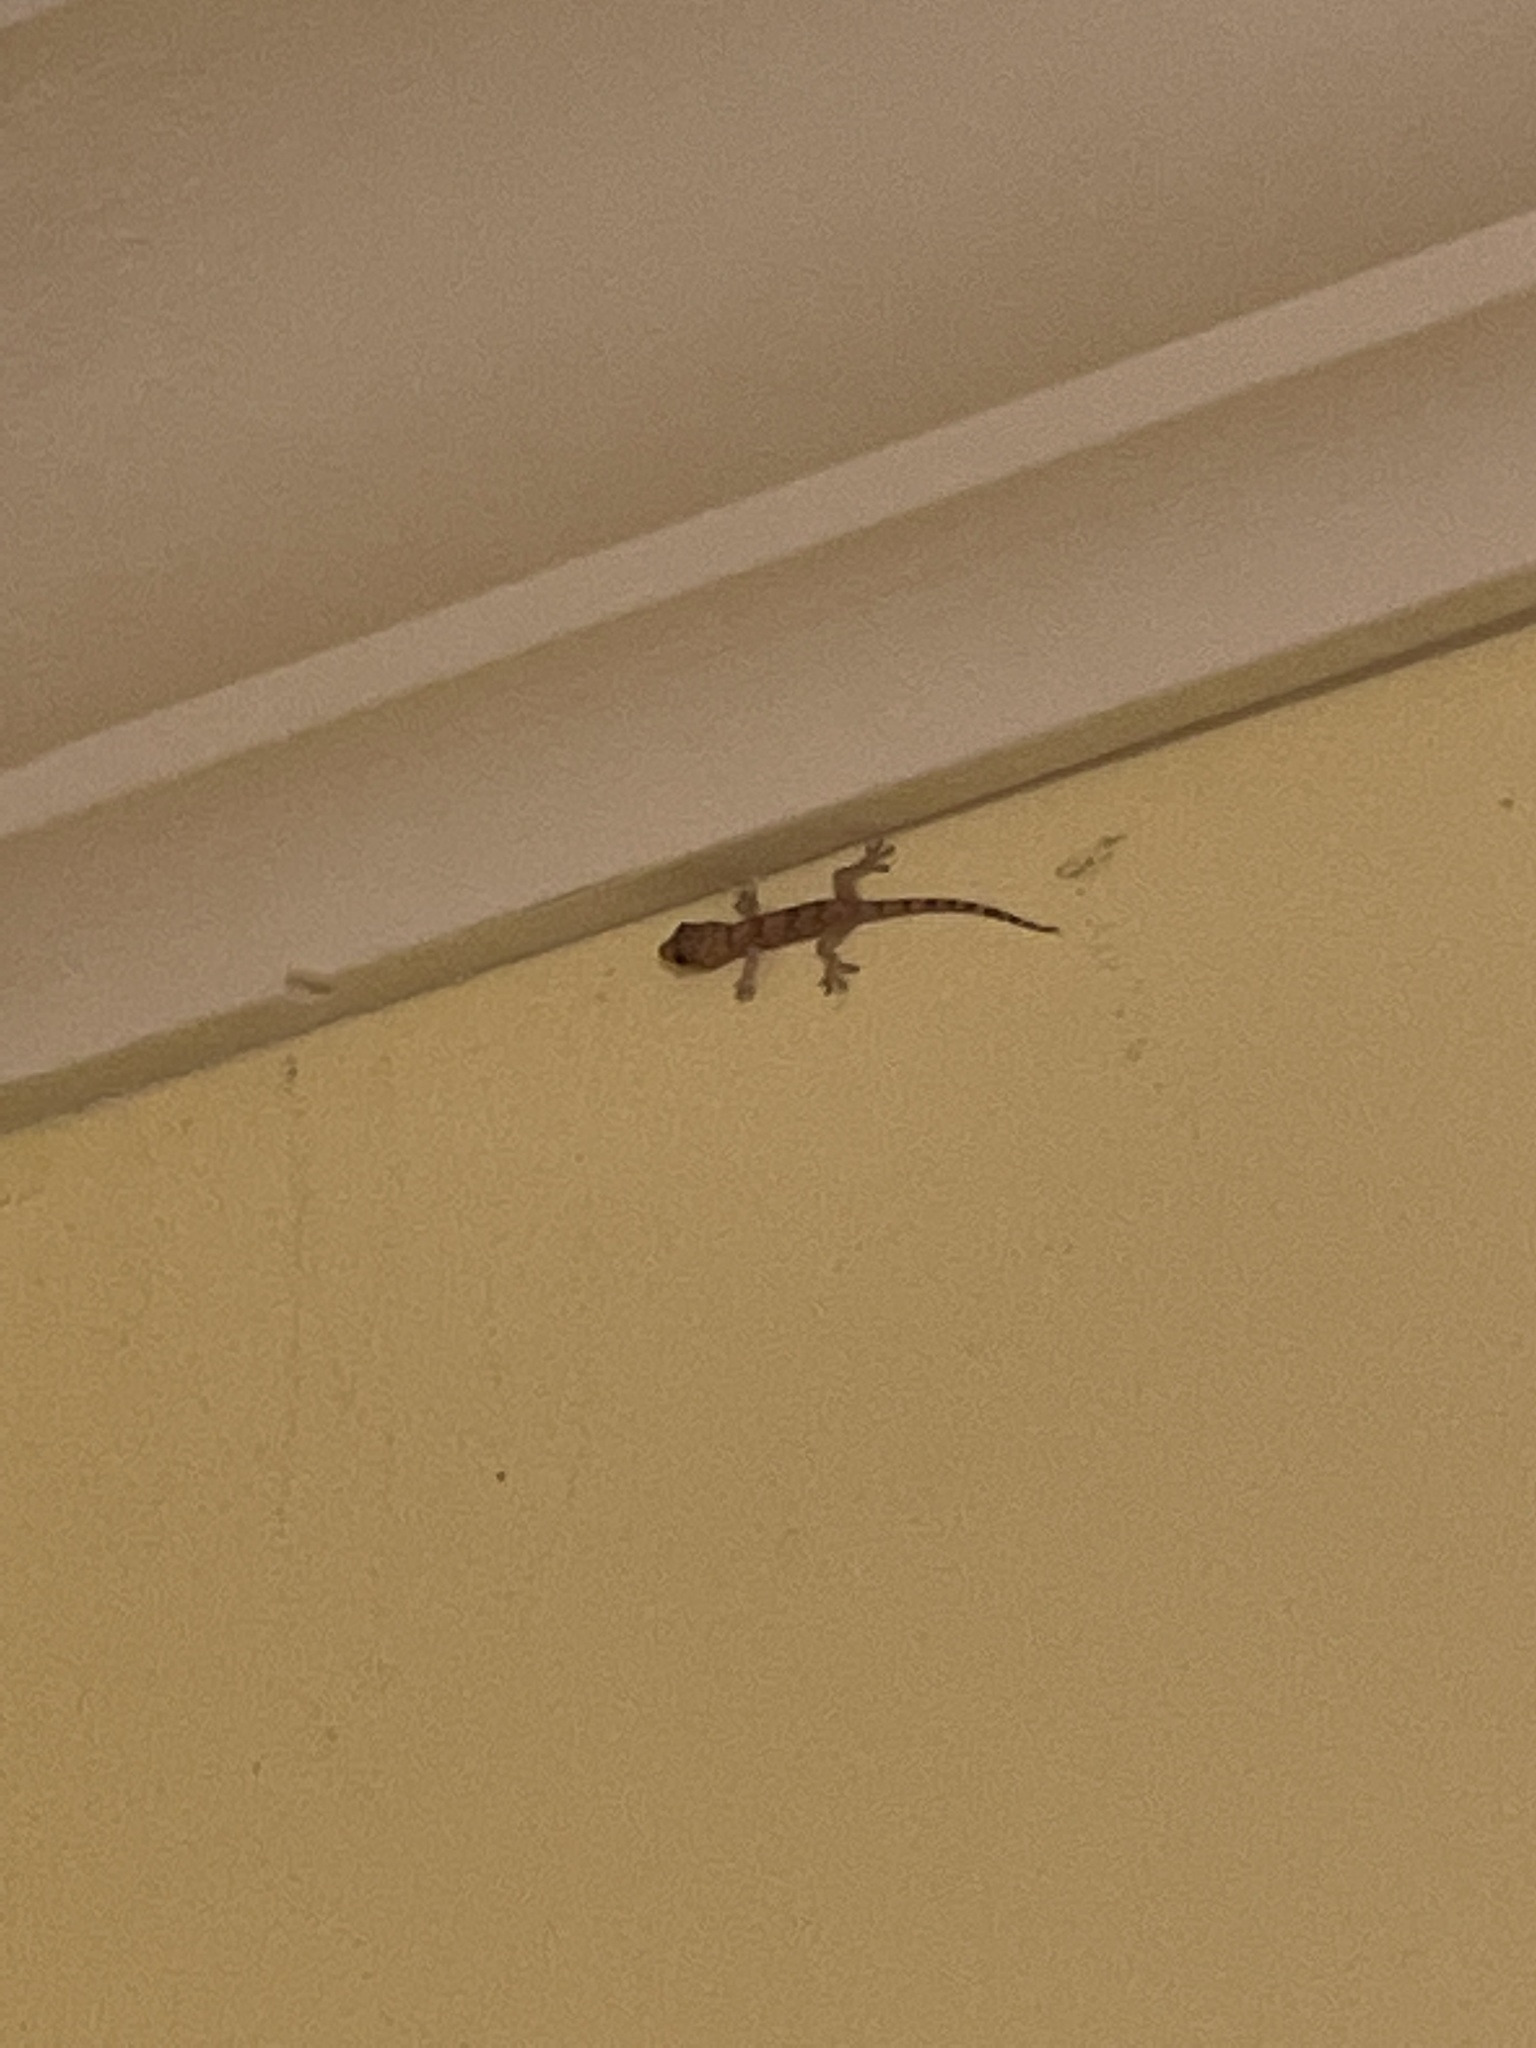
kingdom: Animalia
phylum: Chordata
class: Squamata
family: Gekkonidae
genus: Hemidactylus
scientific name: Hemidactylus mabouia
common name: House gecko
